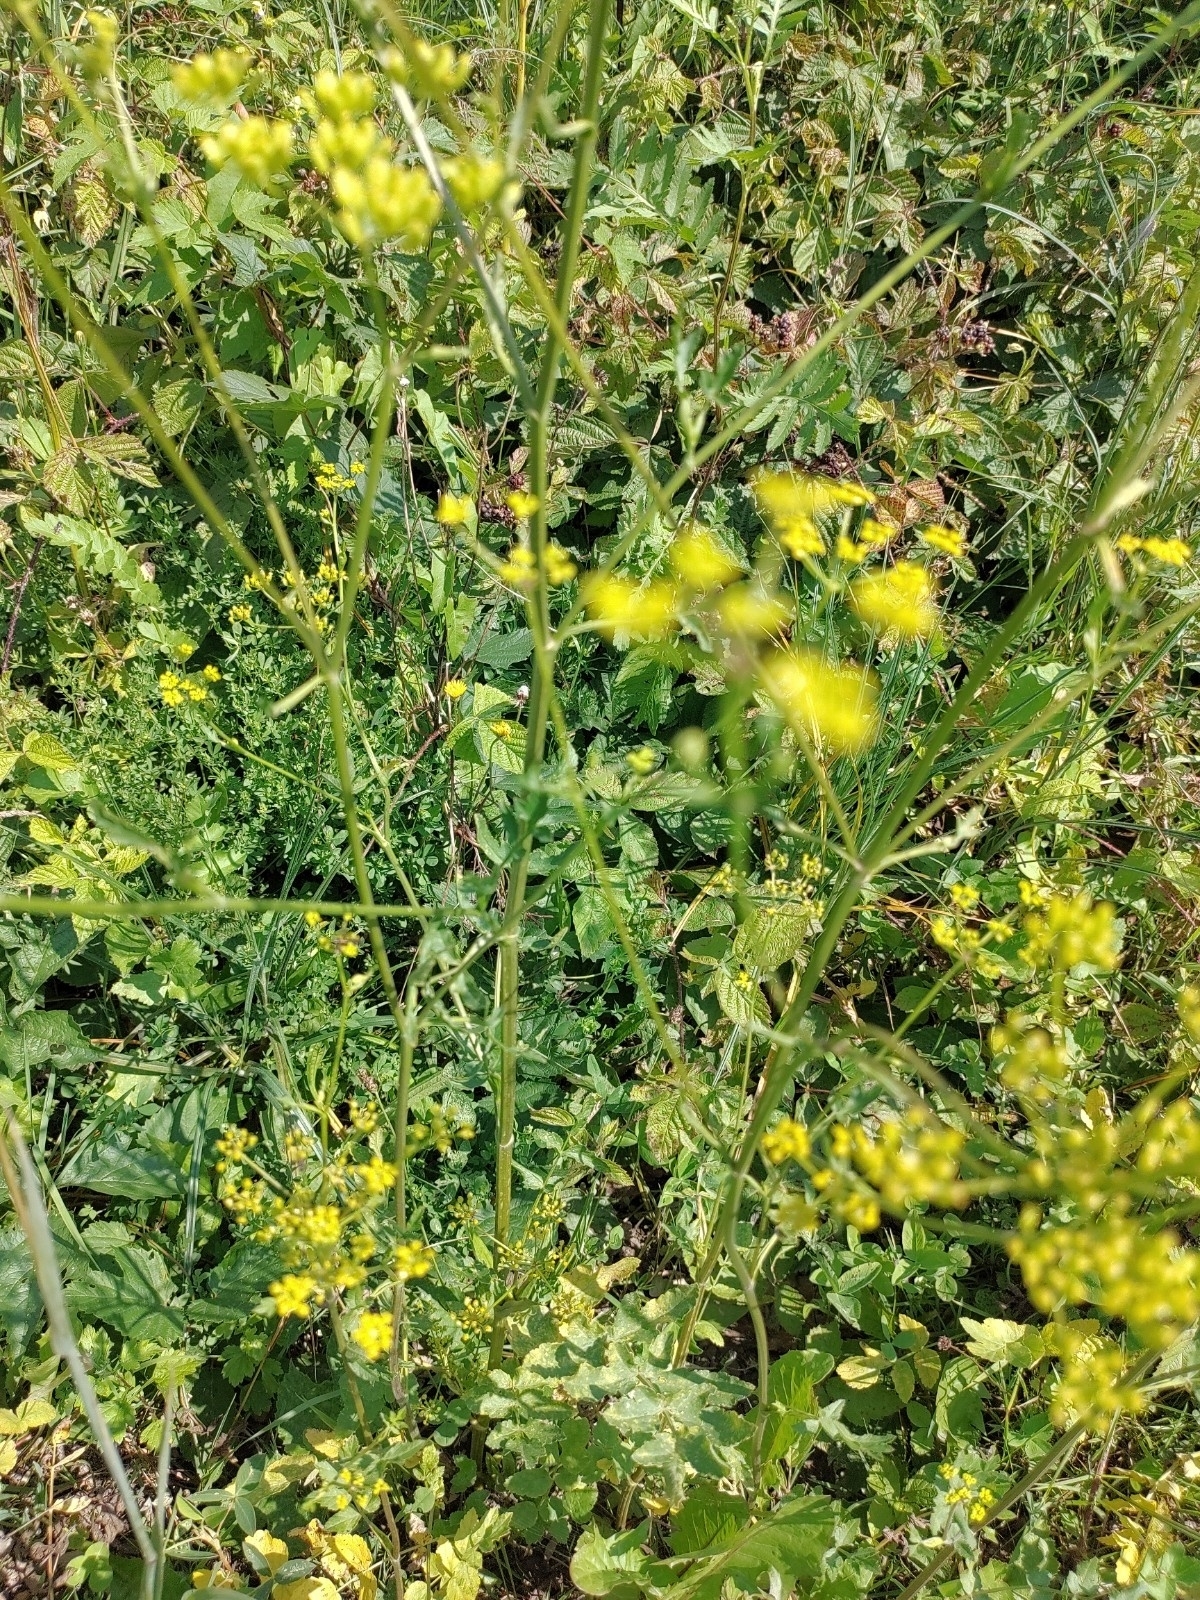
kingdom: Plantae
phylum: Tracheophyta
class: Magnoliopsida
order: Apiales
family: Apiaceae
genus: Pastinaca
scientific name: Pastinaca sativa
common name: Wild parsnip
